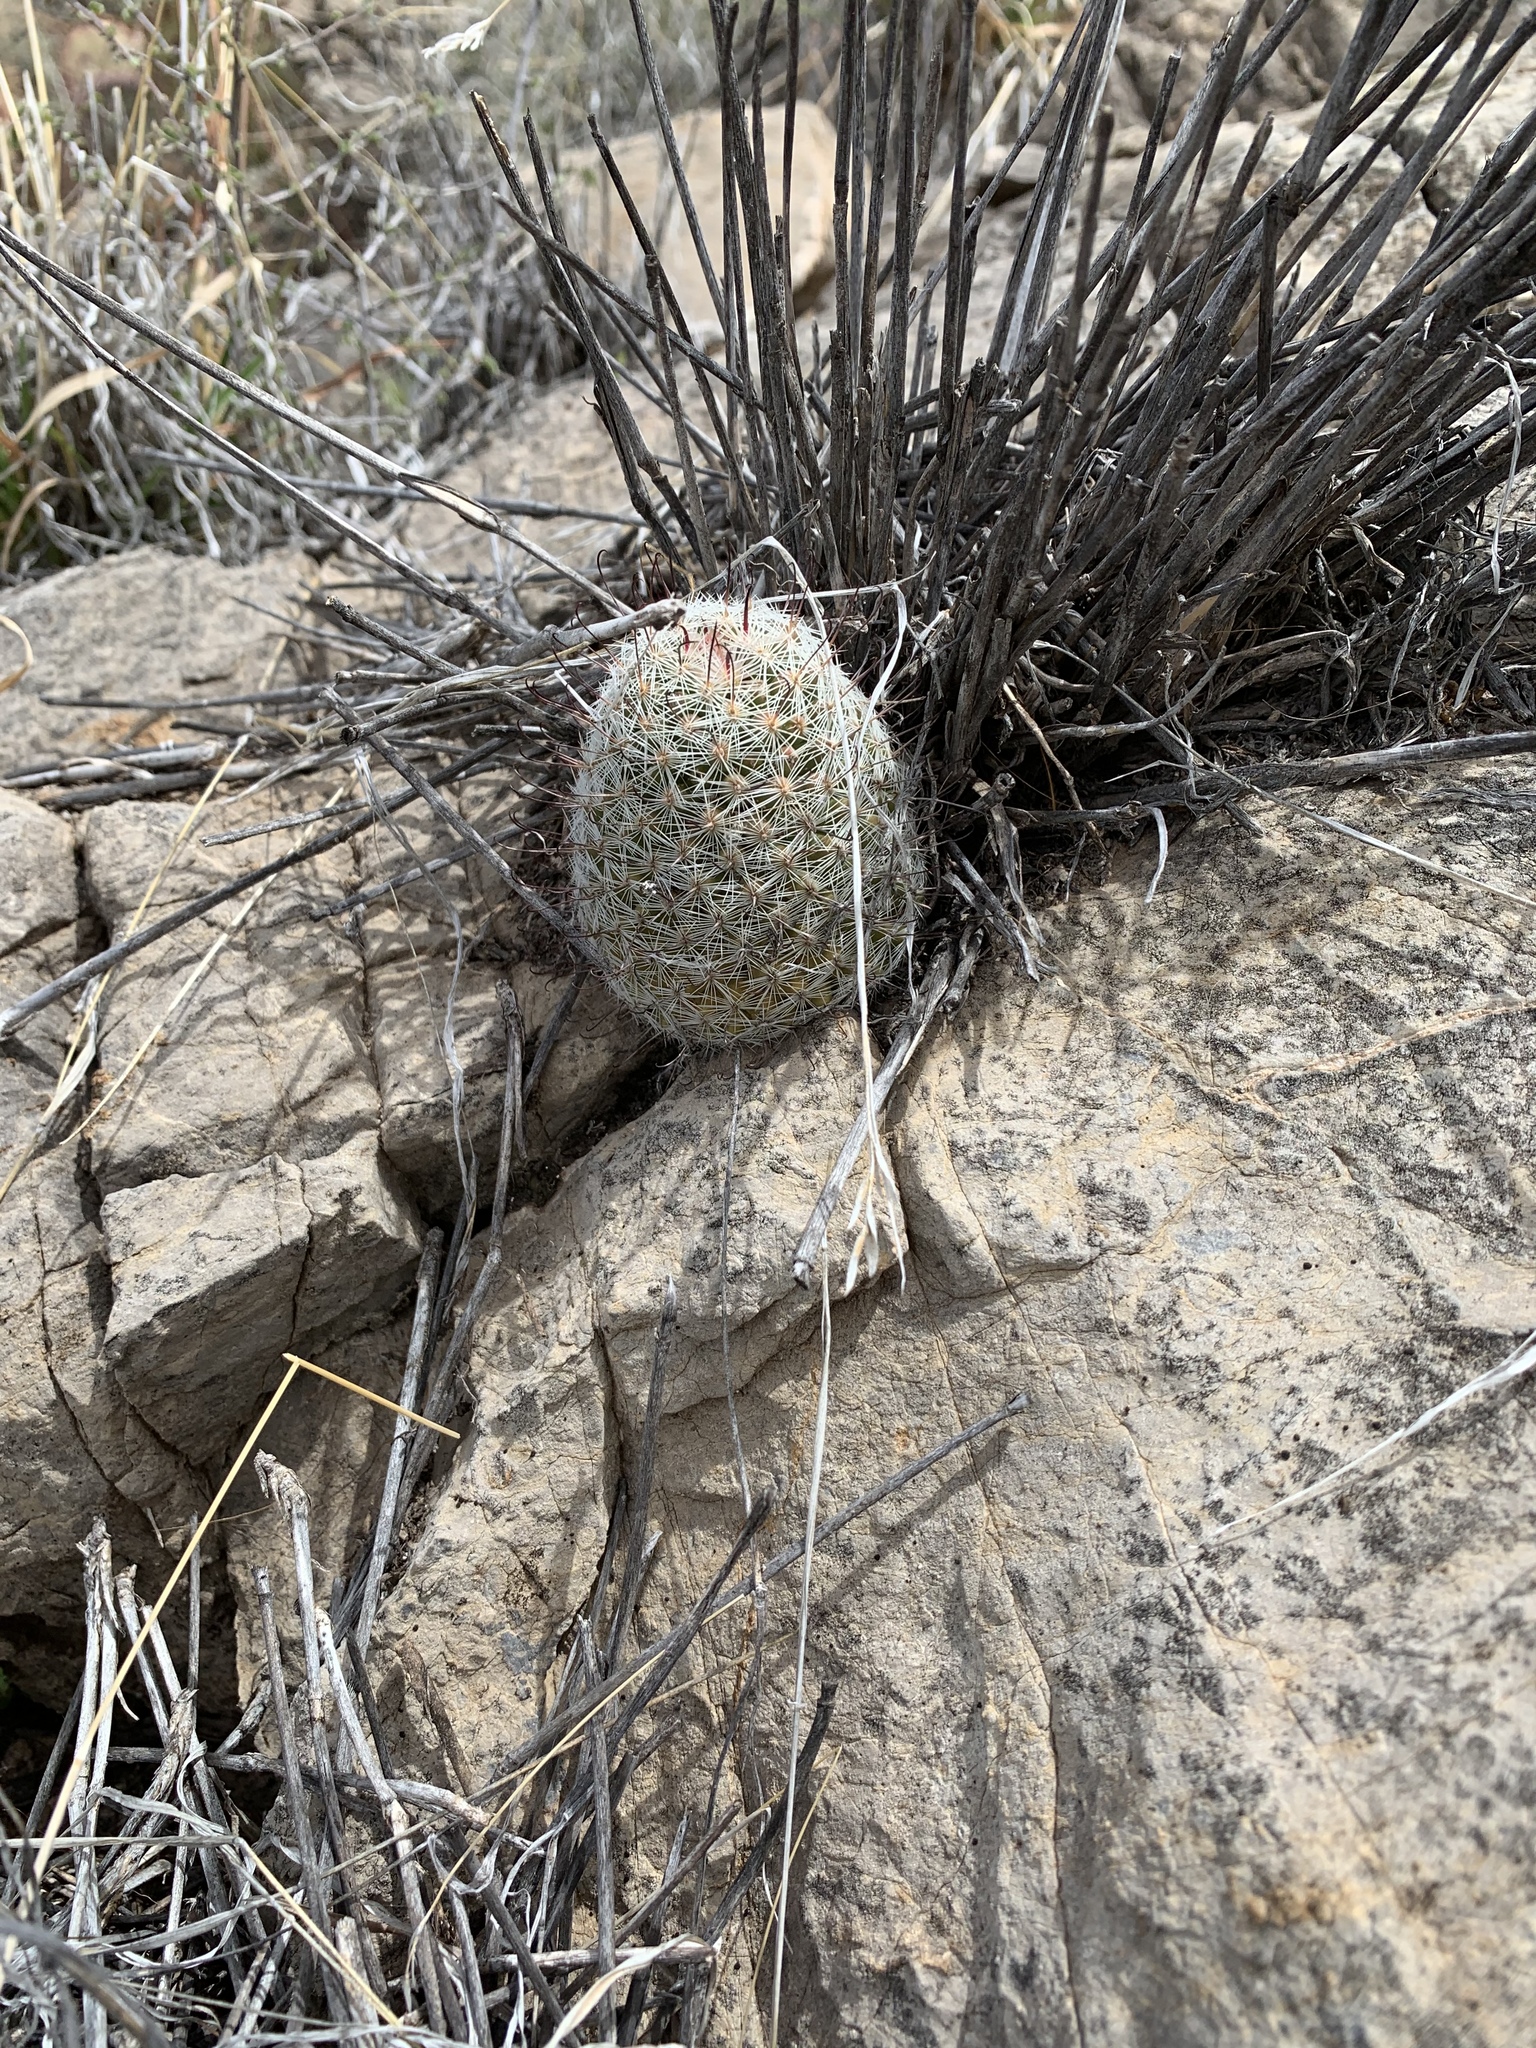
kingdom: Plantae
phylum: Tracheophyta
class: Magnoliopsida
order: Caryophyllales
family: Cactaceae
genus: Cochemiea
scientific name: Cochemiea grahamii
